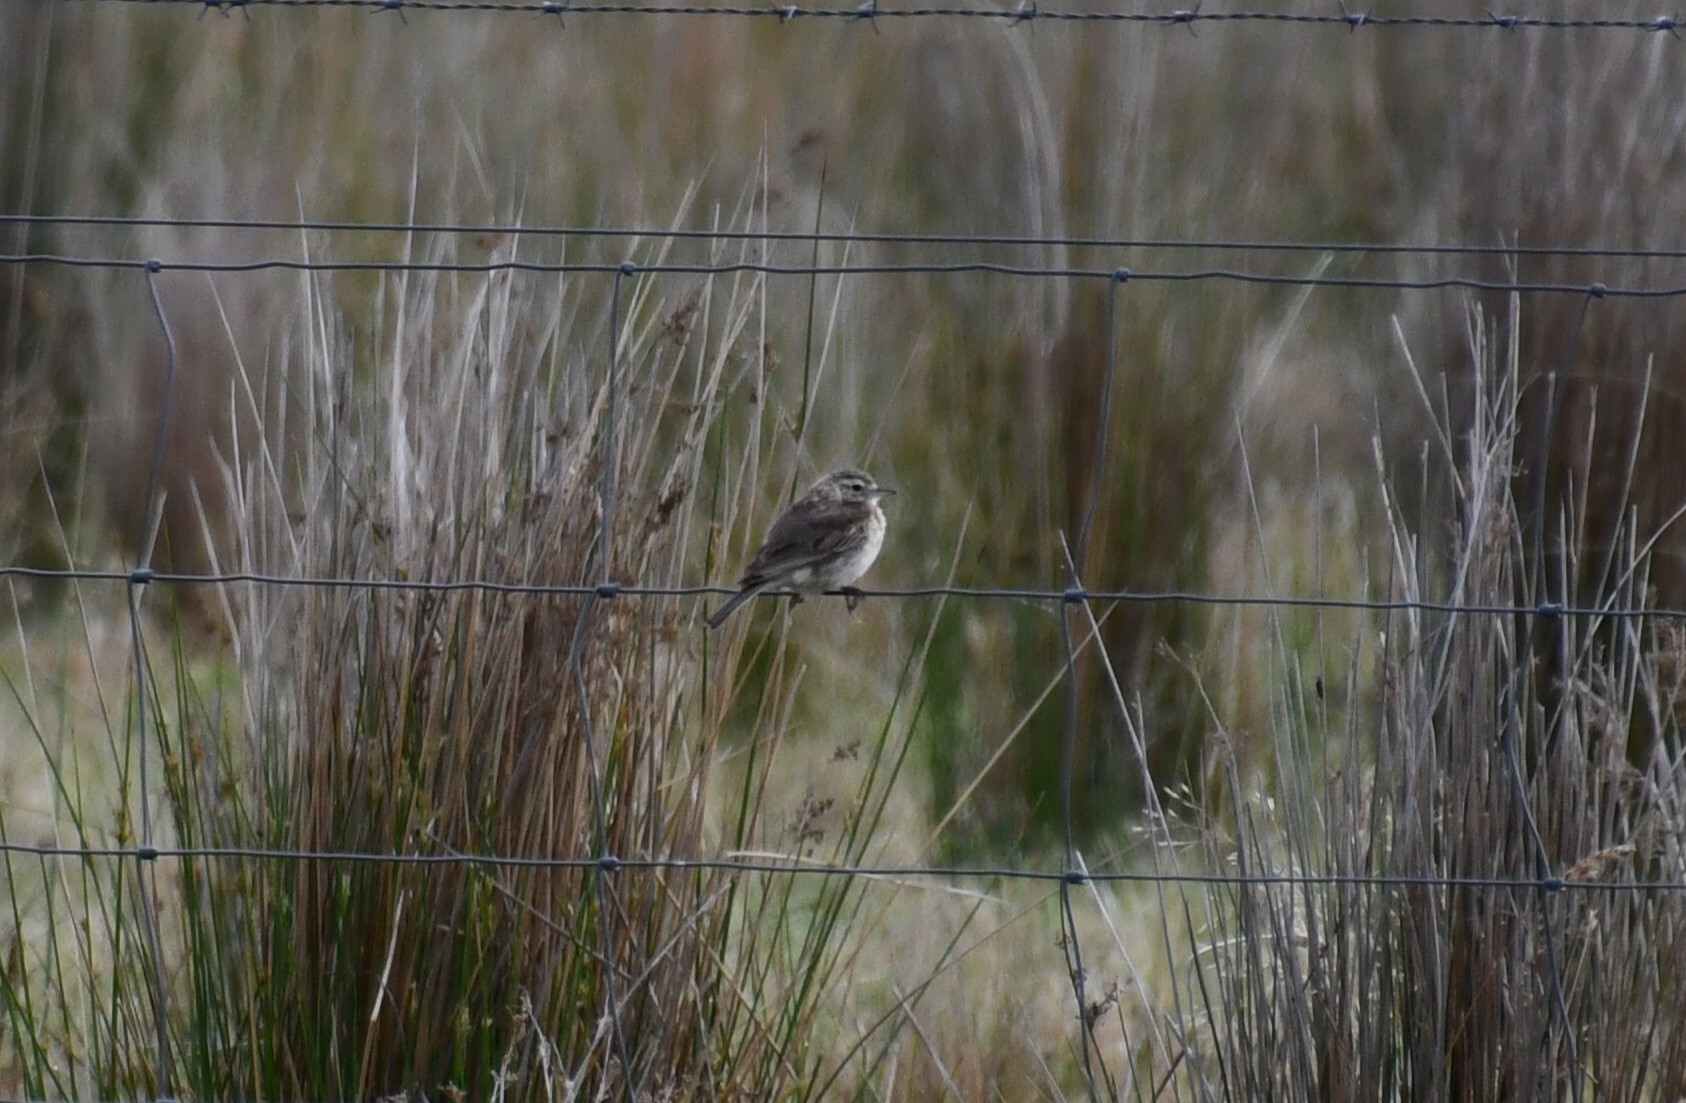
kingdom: Animalia
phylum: Chordata
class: Aves
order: Passeriformes
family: Motacillidae
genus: Anthus
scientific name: Anthus australis
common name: Australian pipit
